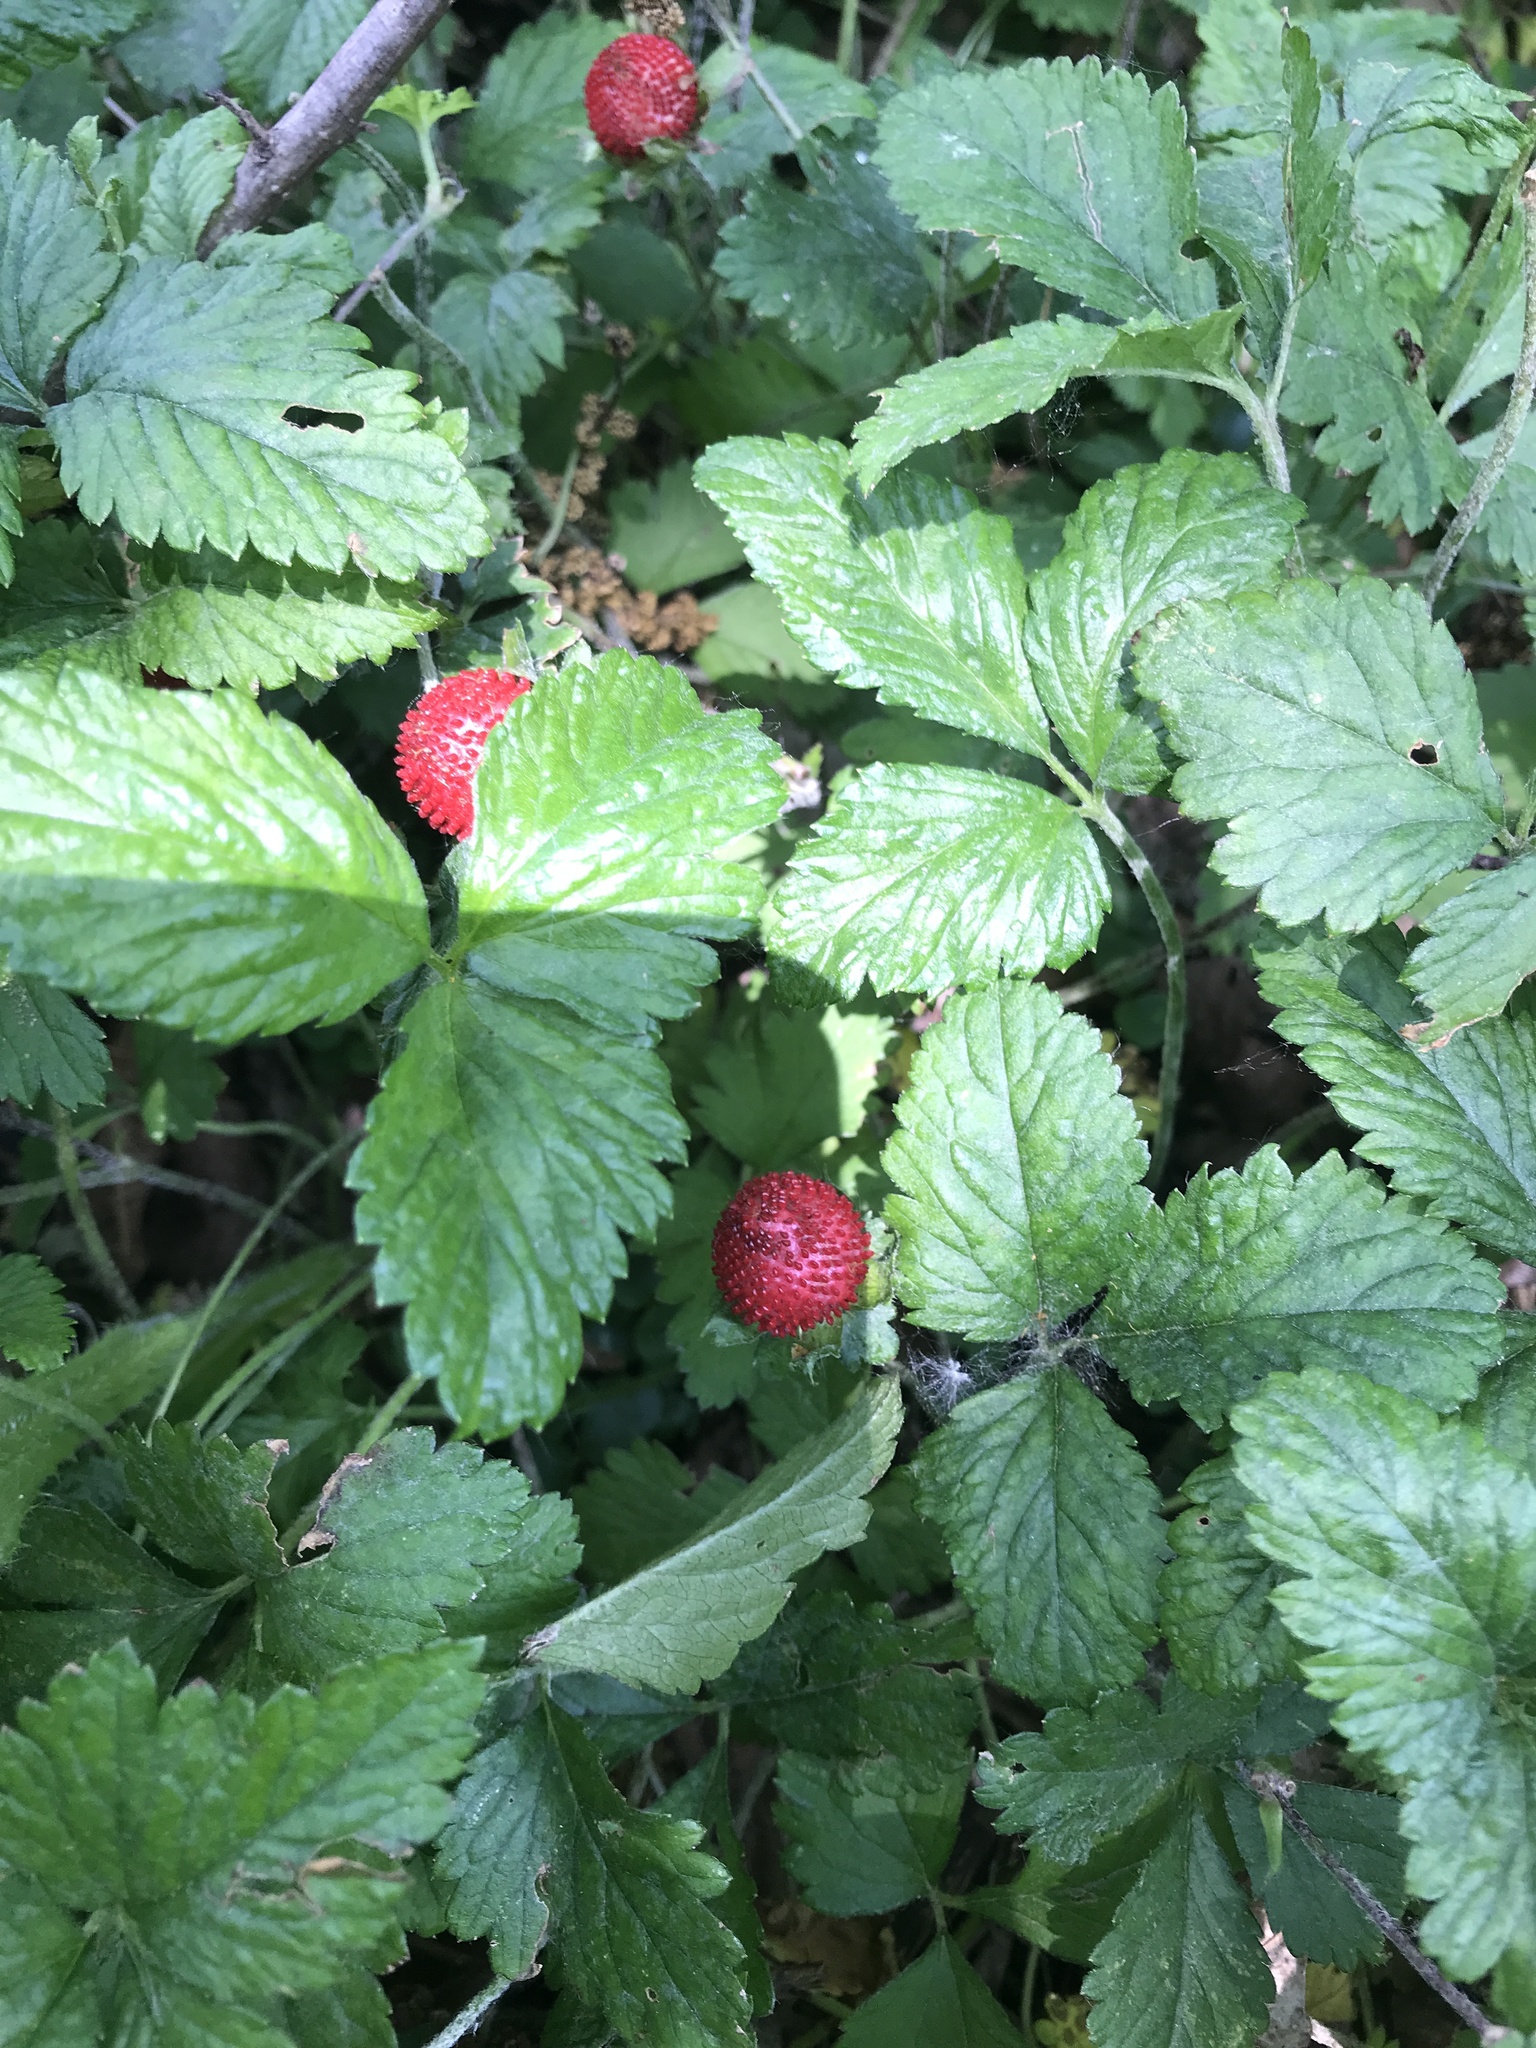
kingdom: Plantae
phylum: Tracheophyta
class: Magnoliopsida
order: Rosales
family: Rosaceae
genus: Potentilla
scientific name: Potentilla indica
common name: Yellow-flowered strawberry
